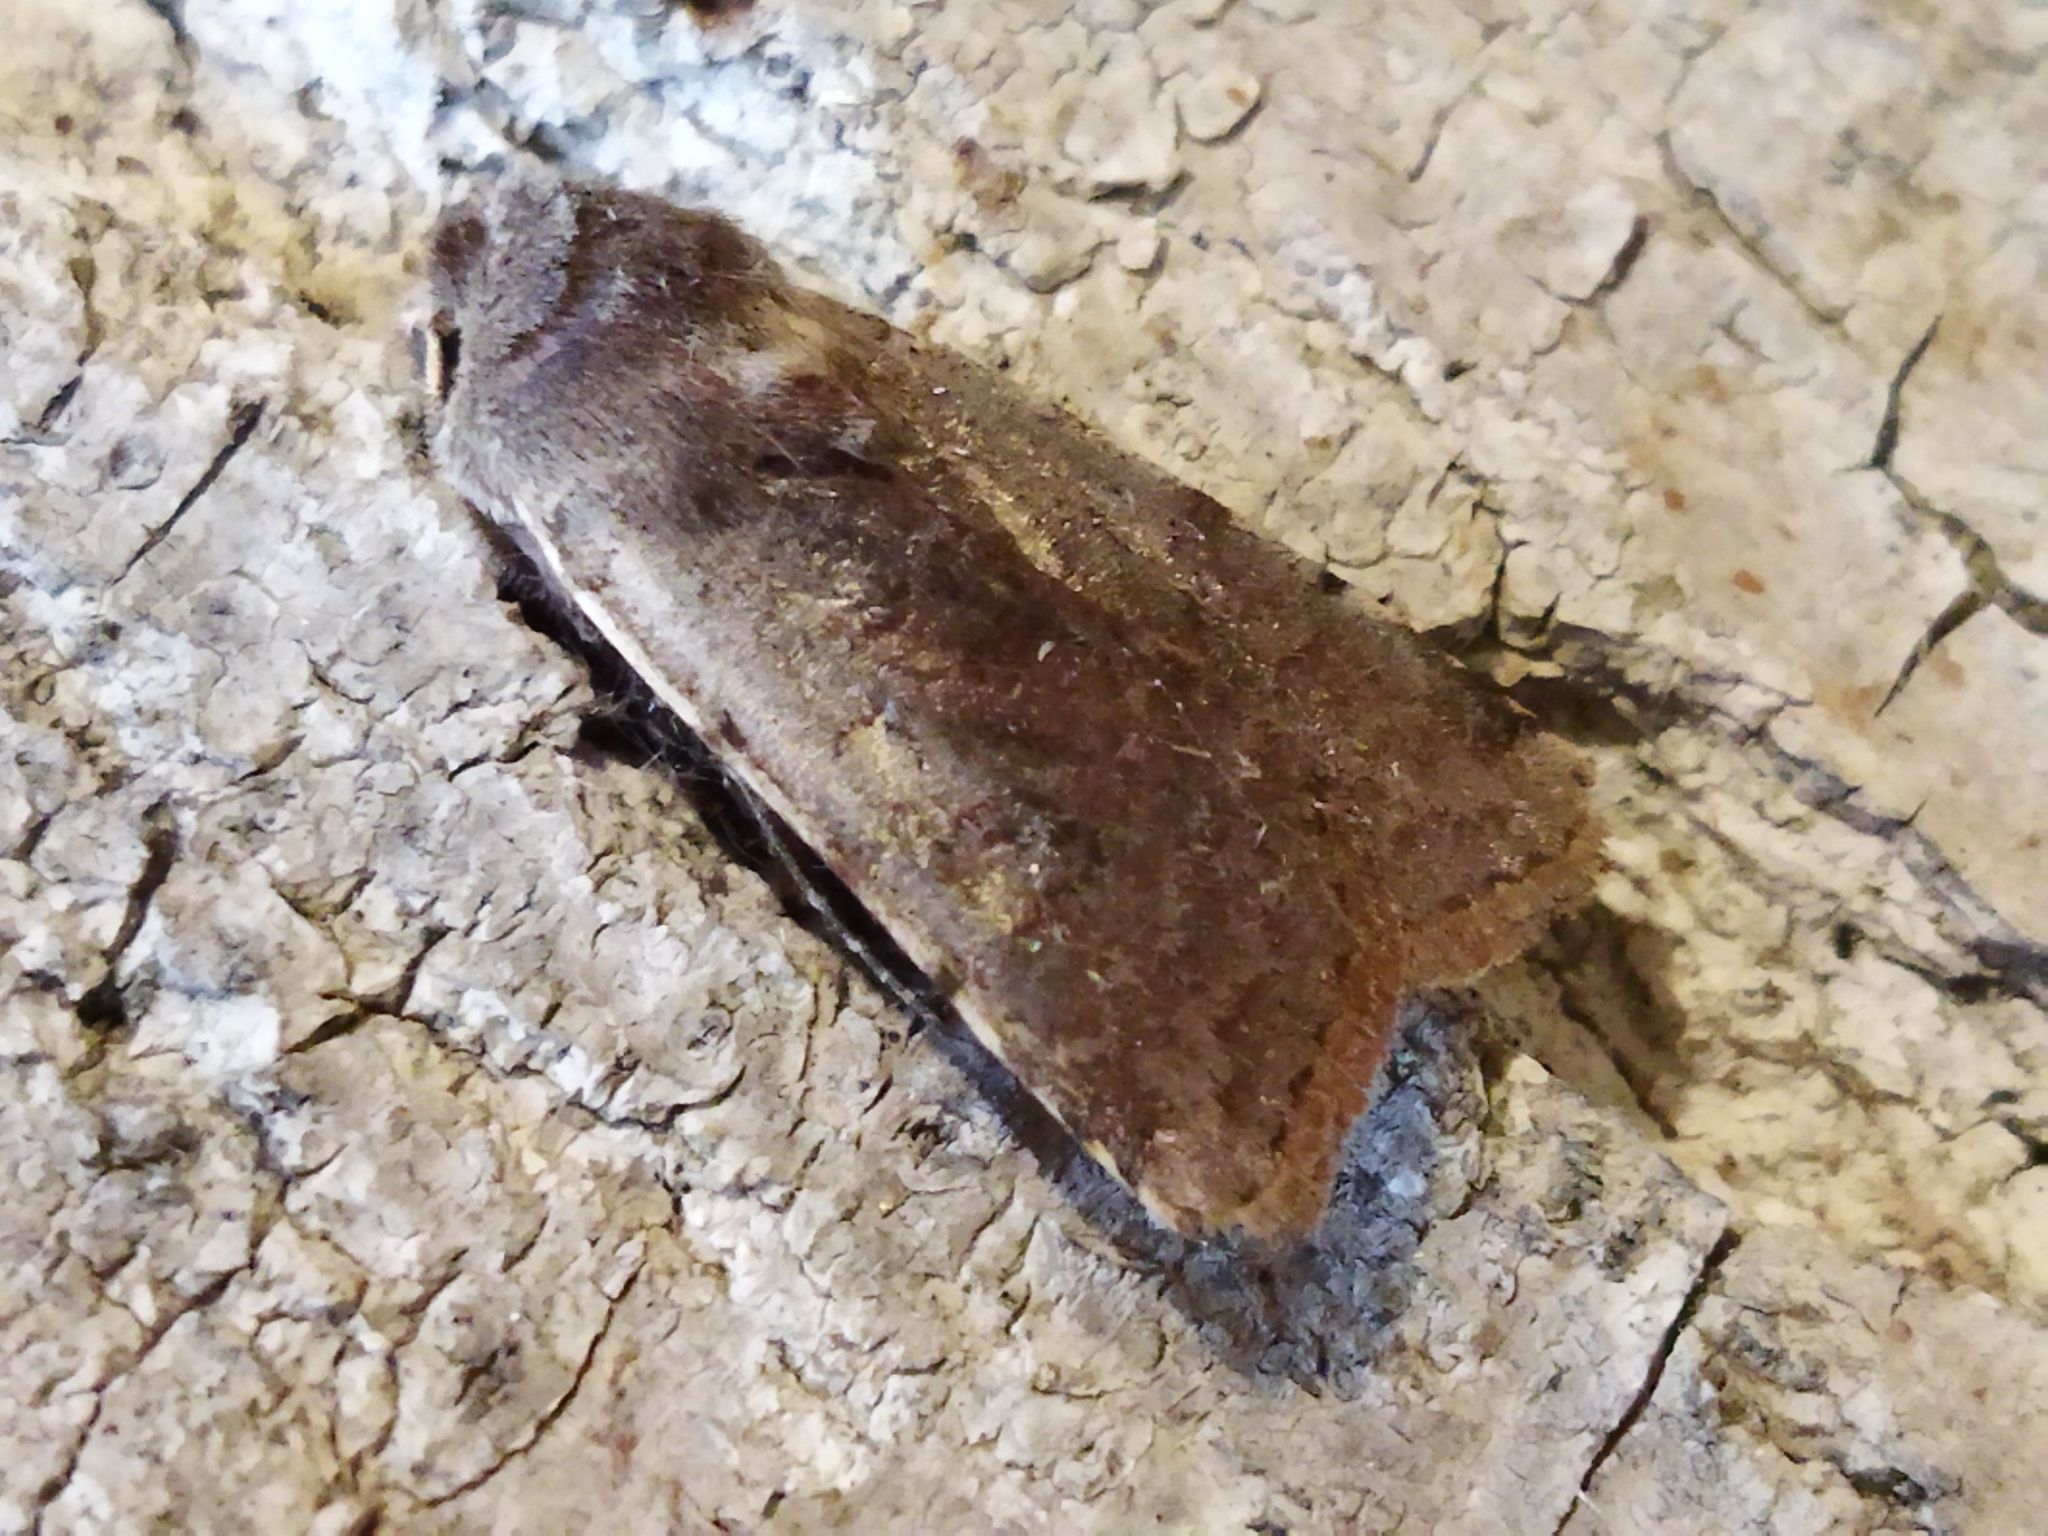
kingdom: Animalia
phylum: Arthropoda
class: Insecta
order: Lepidoptera
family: Noctuidae
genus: Cerastis
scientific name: Cerastis rubricosa
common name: Red chestnut
